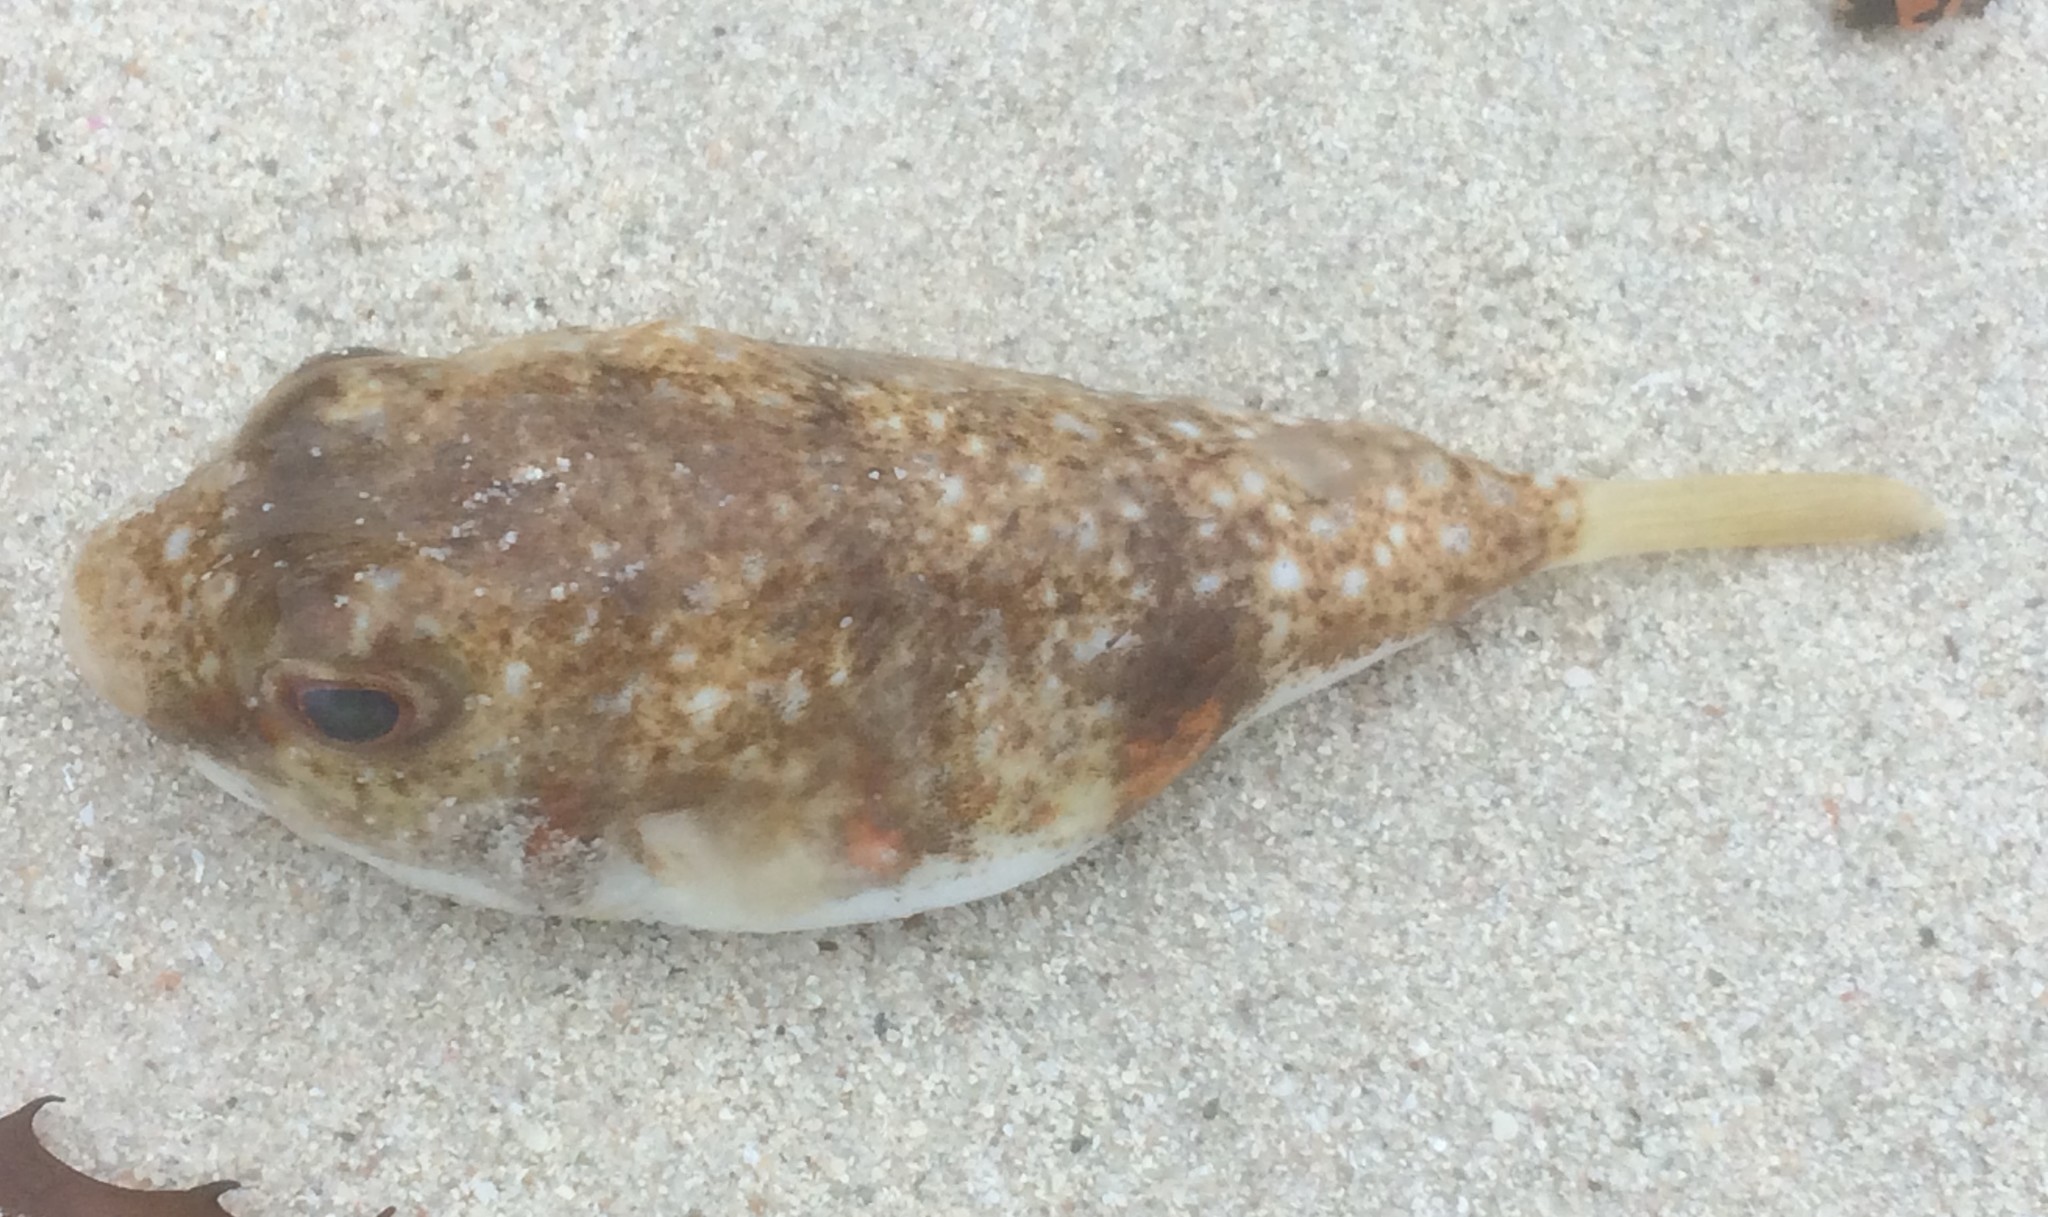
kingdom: Animalia
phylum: Chordata
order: Tetraodontiformes
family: Tetraodontidae
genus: Polyspina
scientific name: Polyspina piosae
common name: Orange-barred pufferfish
